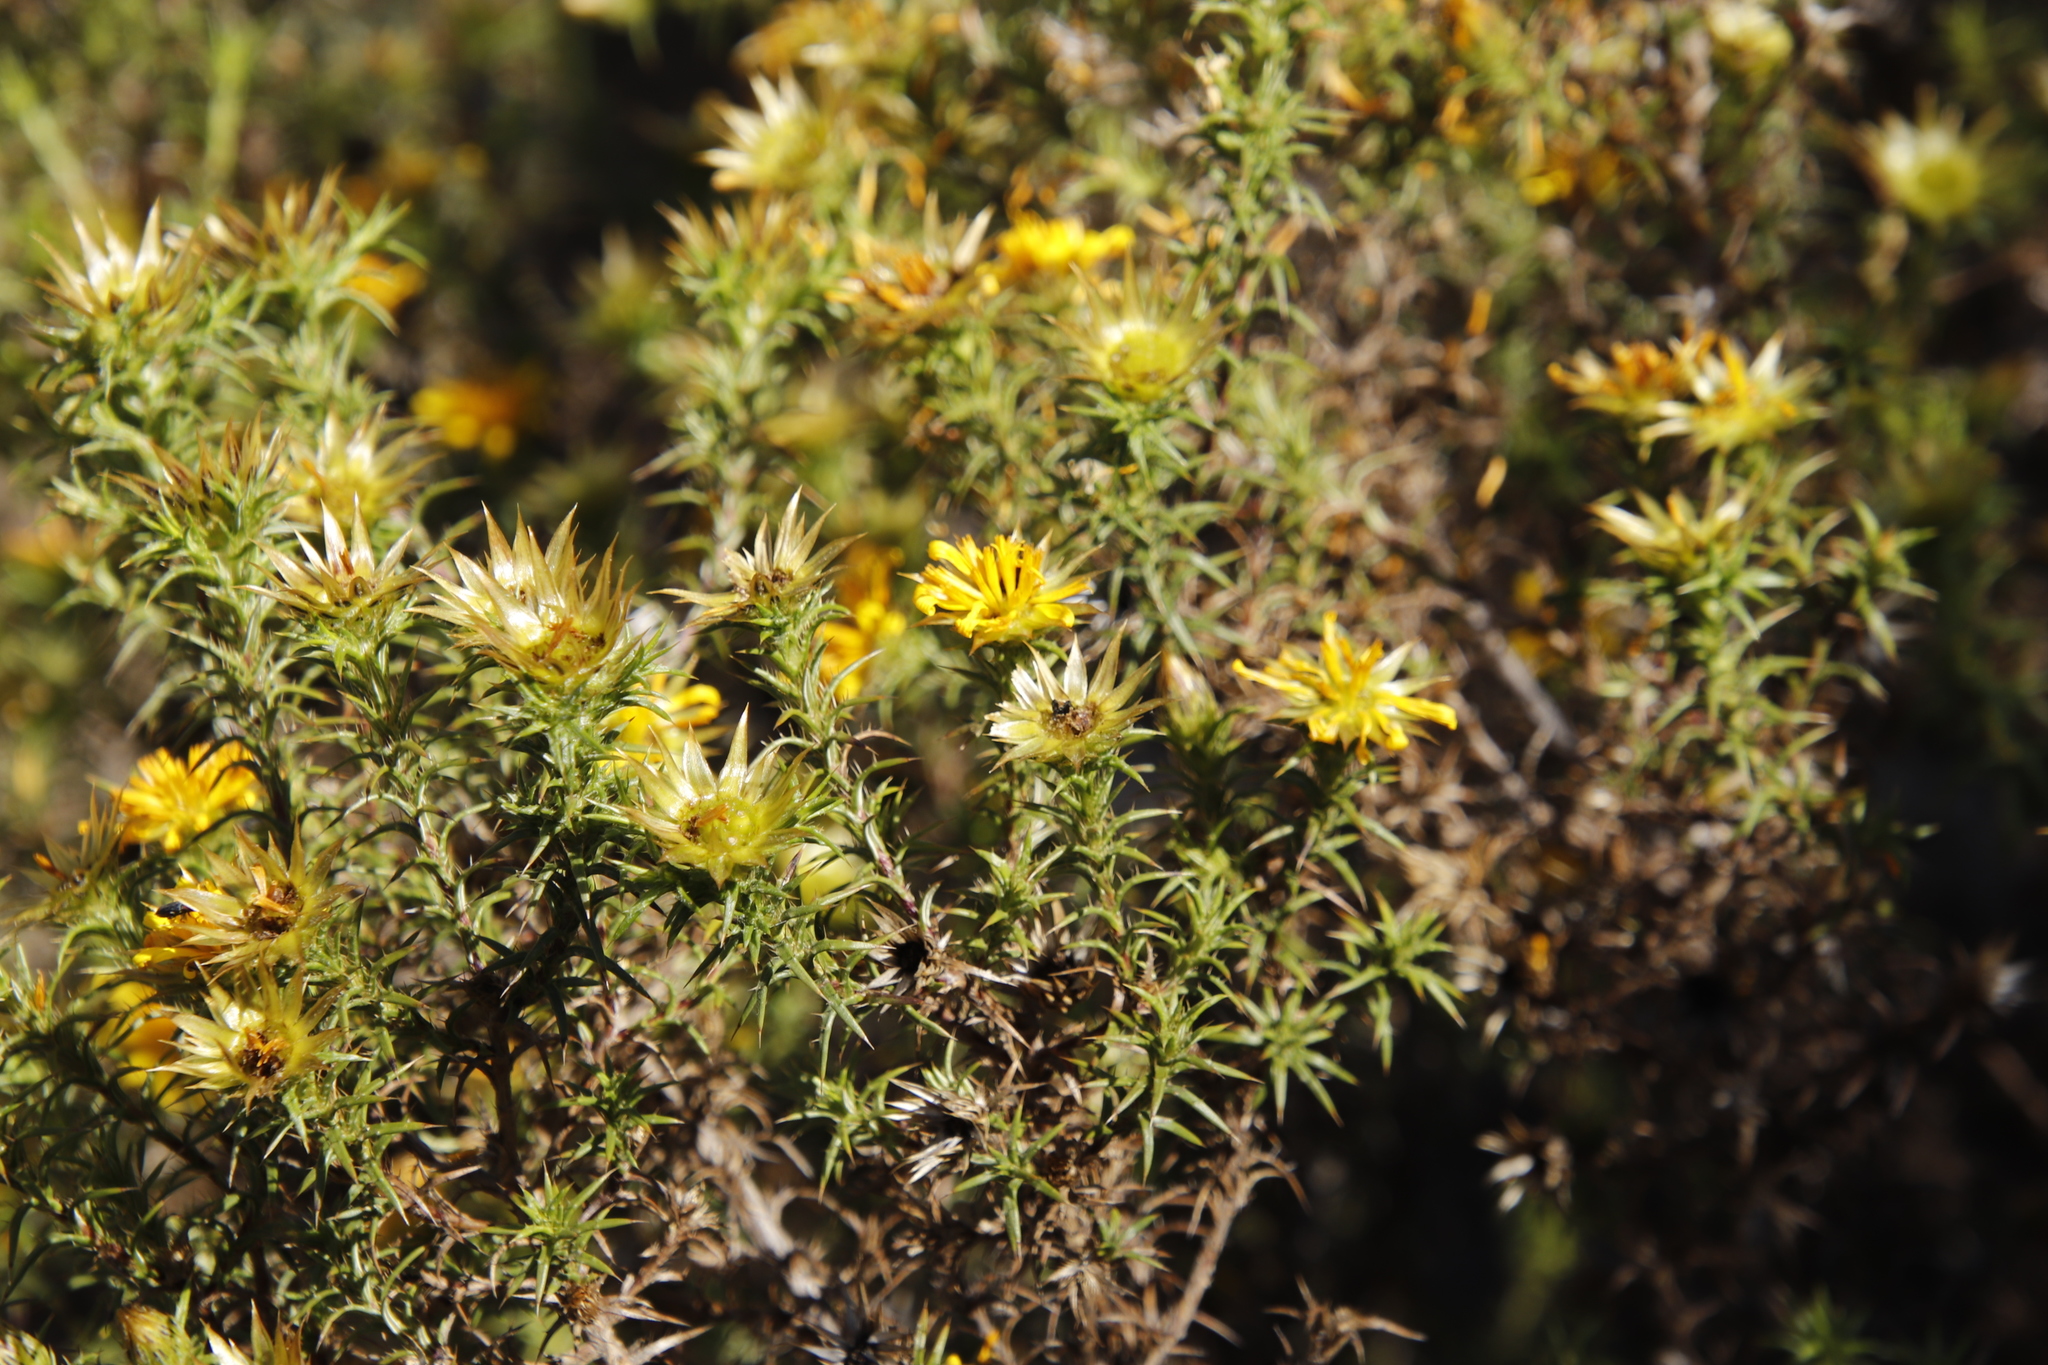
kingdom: Plantae
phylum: Tracheophyta
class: Magnoliopsida
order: Asterales
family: Asteraceae
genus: Cullumia
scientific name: Cullumia bisulca
